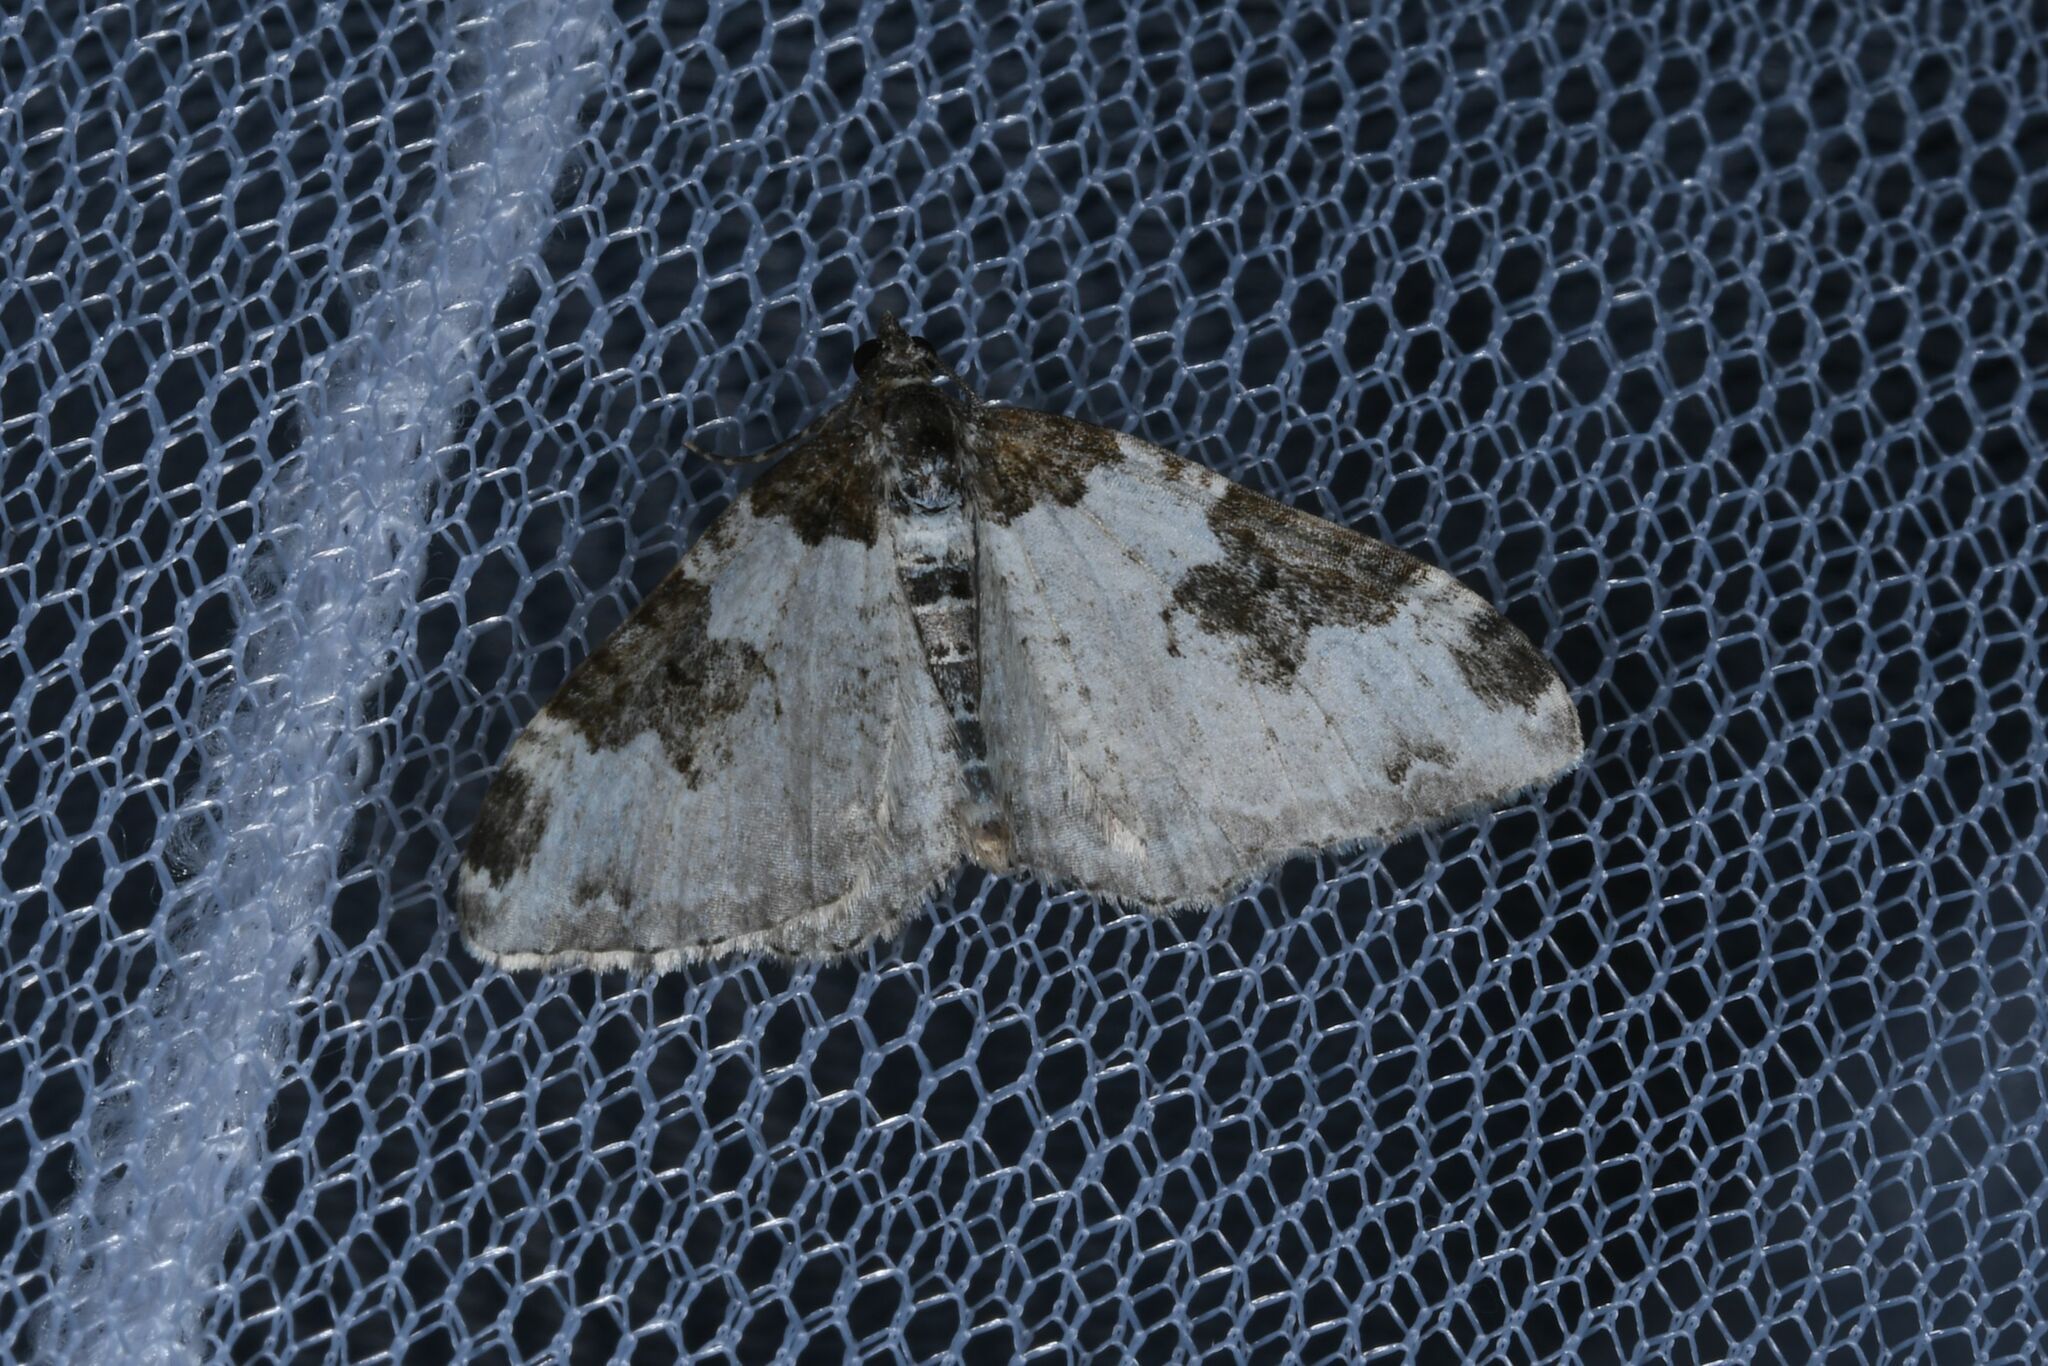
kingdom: Animalia
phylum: Arthropoda
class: Insecta
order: Lepidoptera
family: Geometridae
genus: Xanthorhoe
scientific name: Xanthorhoe fluctuata
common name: Garden carpet
